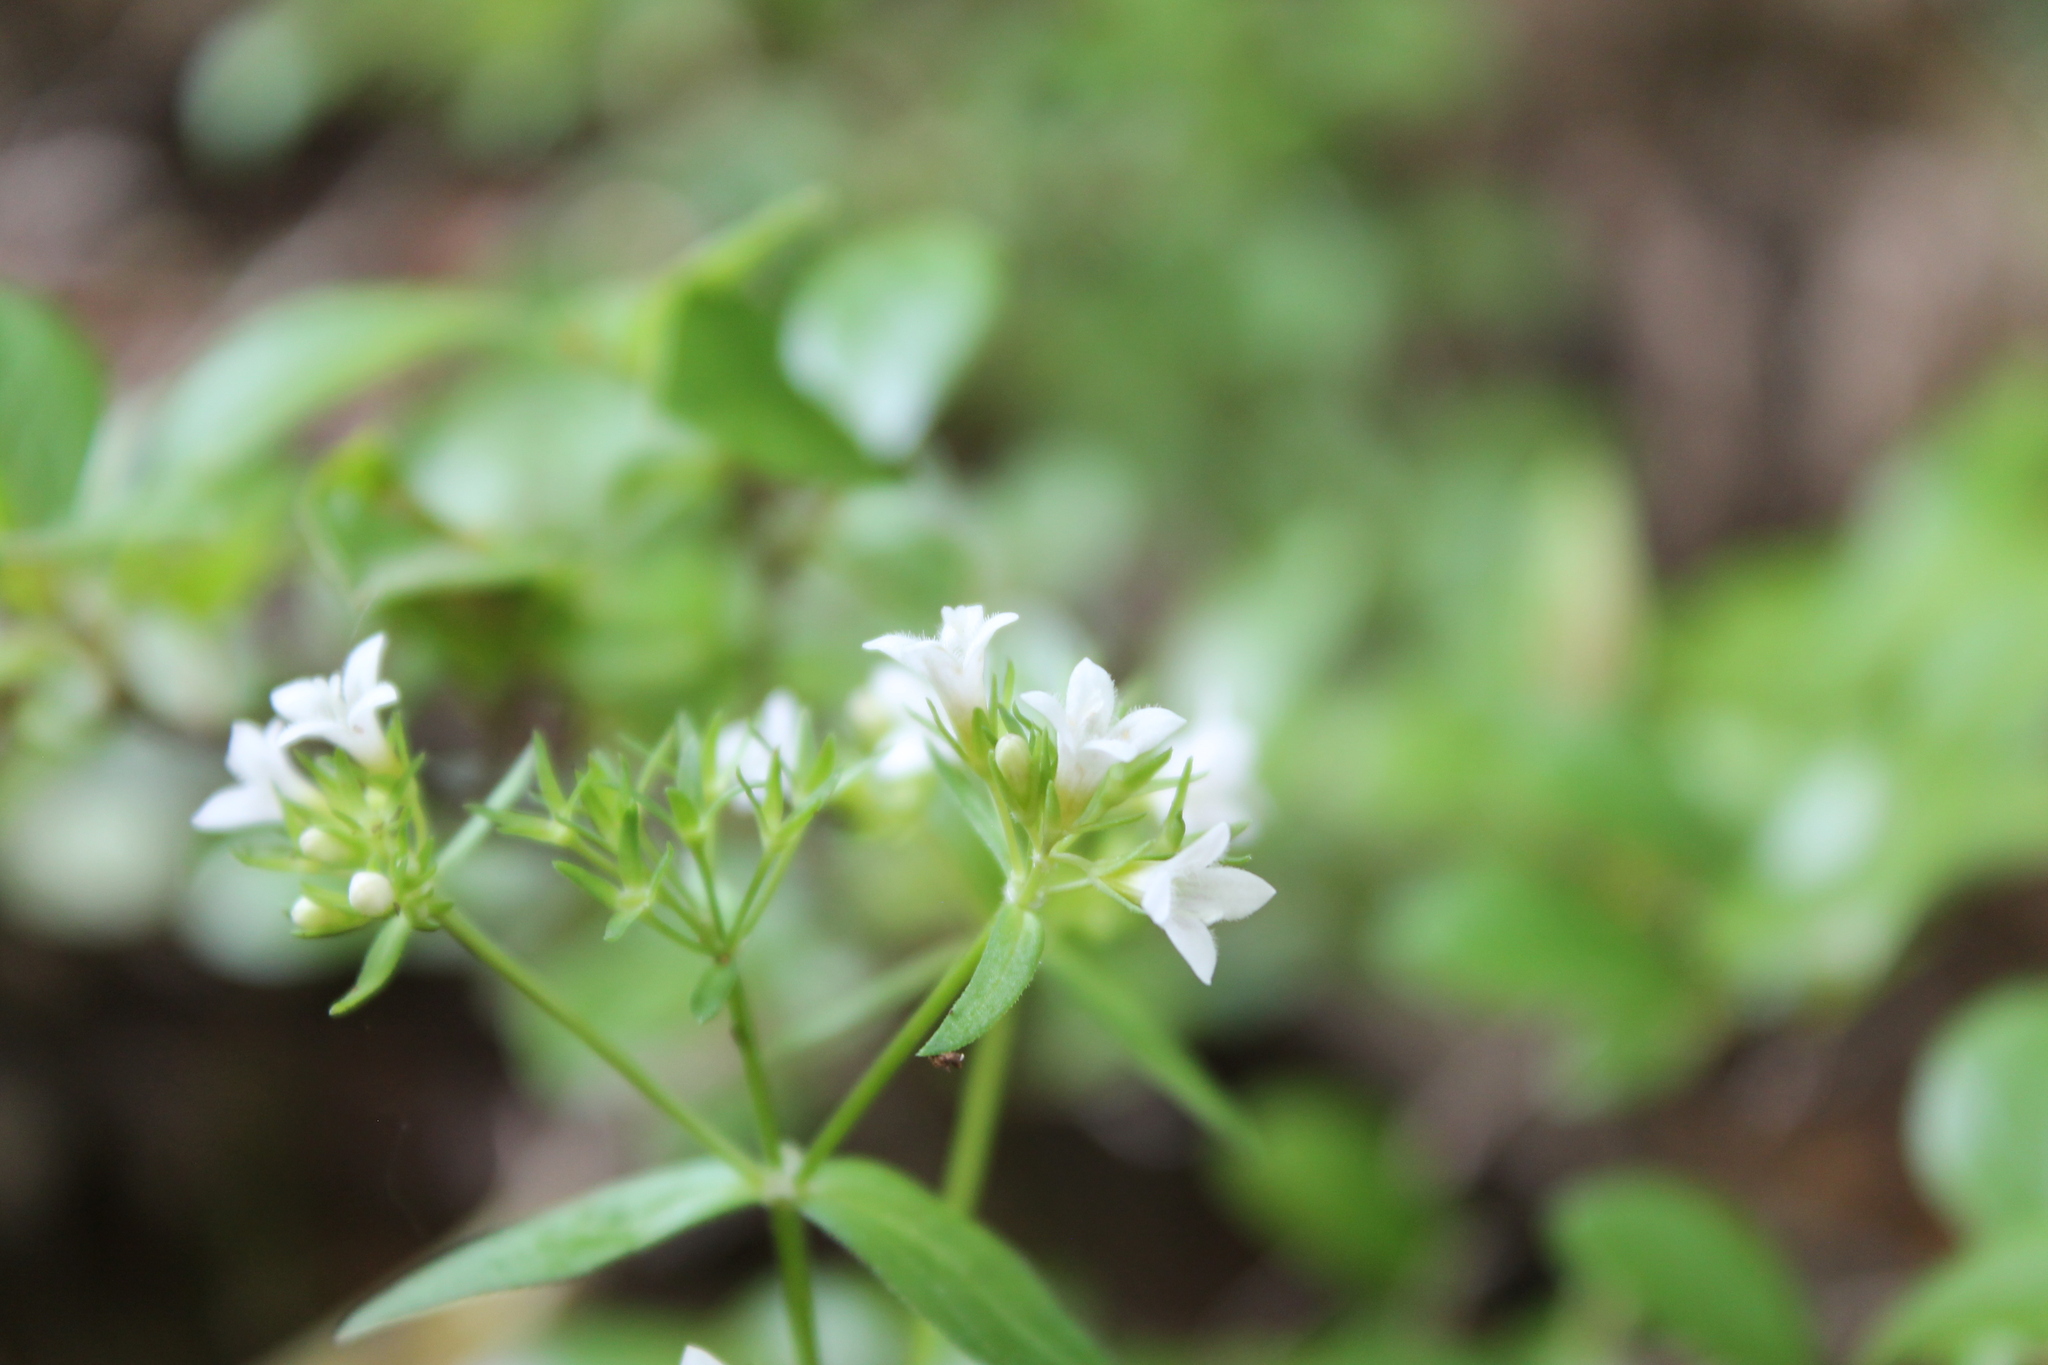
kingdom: Plantae
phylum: Tracheophyta
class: Magnoliopsida
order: Gentianales
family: Rubiaceae
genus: Houstonia
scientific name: Houstonia purpurea
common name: Summer bluet
